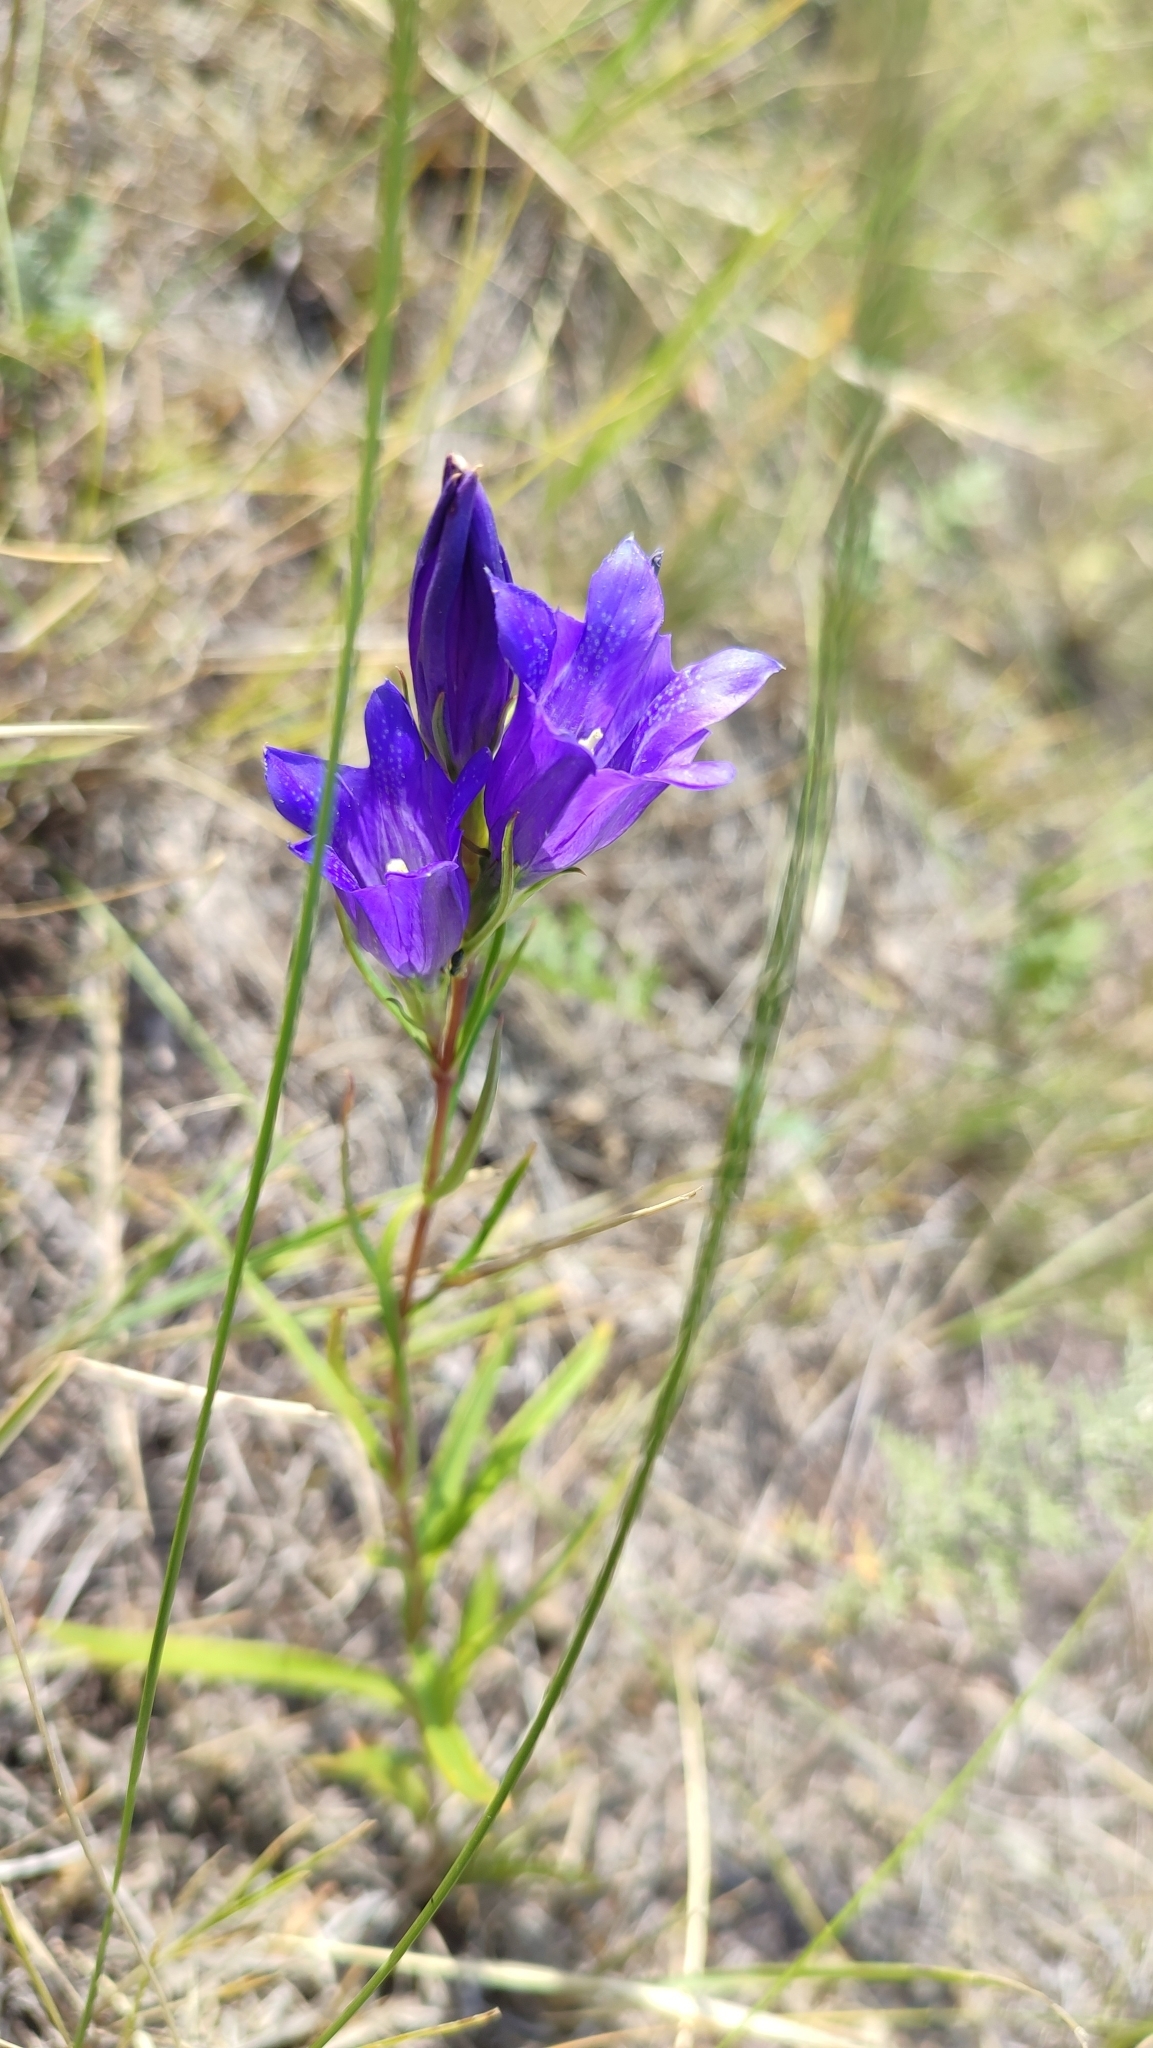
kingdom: Plantae
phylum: Tracheophyta
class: Magnoliopsida
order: Gentianales
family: Gentianaceae
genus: Gentiana
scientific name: Gentiana pneumonanthe
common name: Marsh gentian
